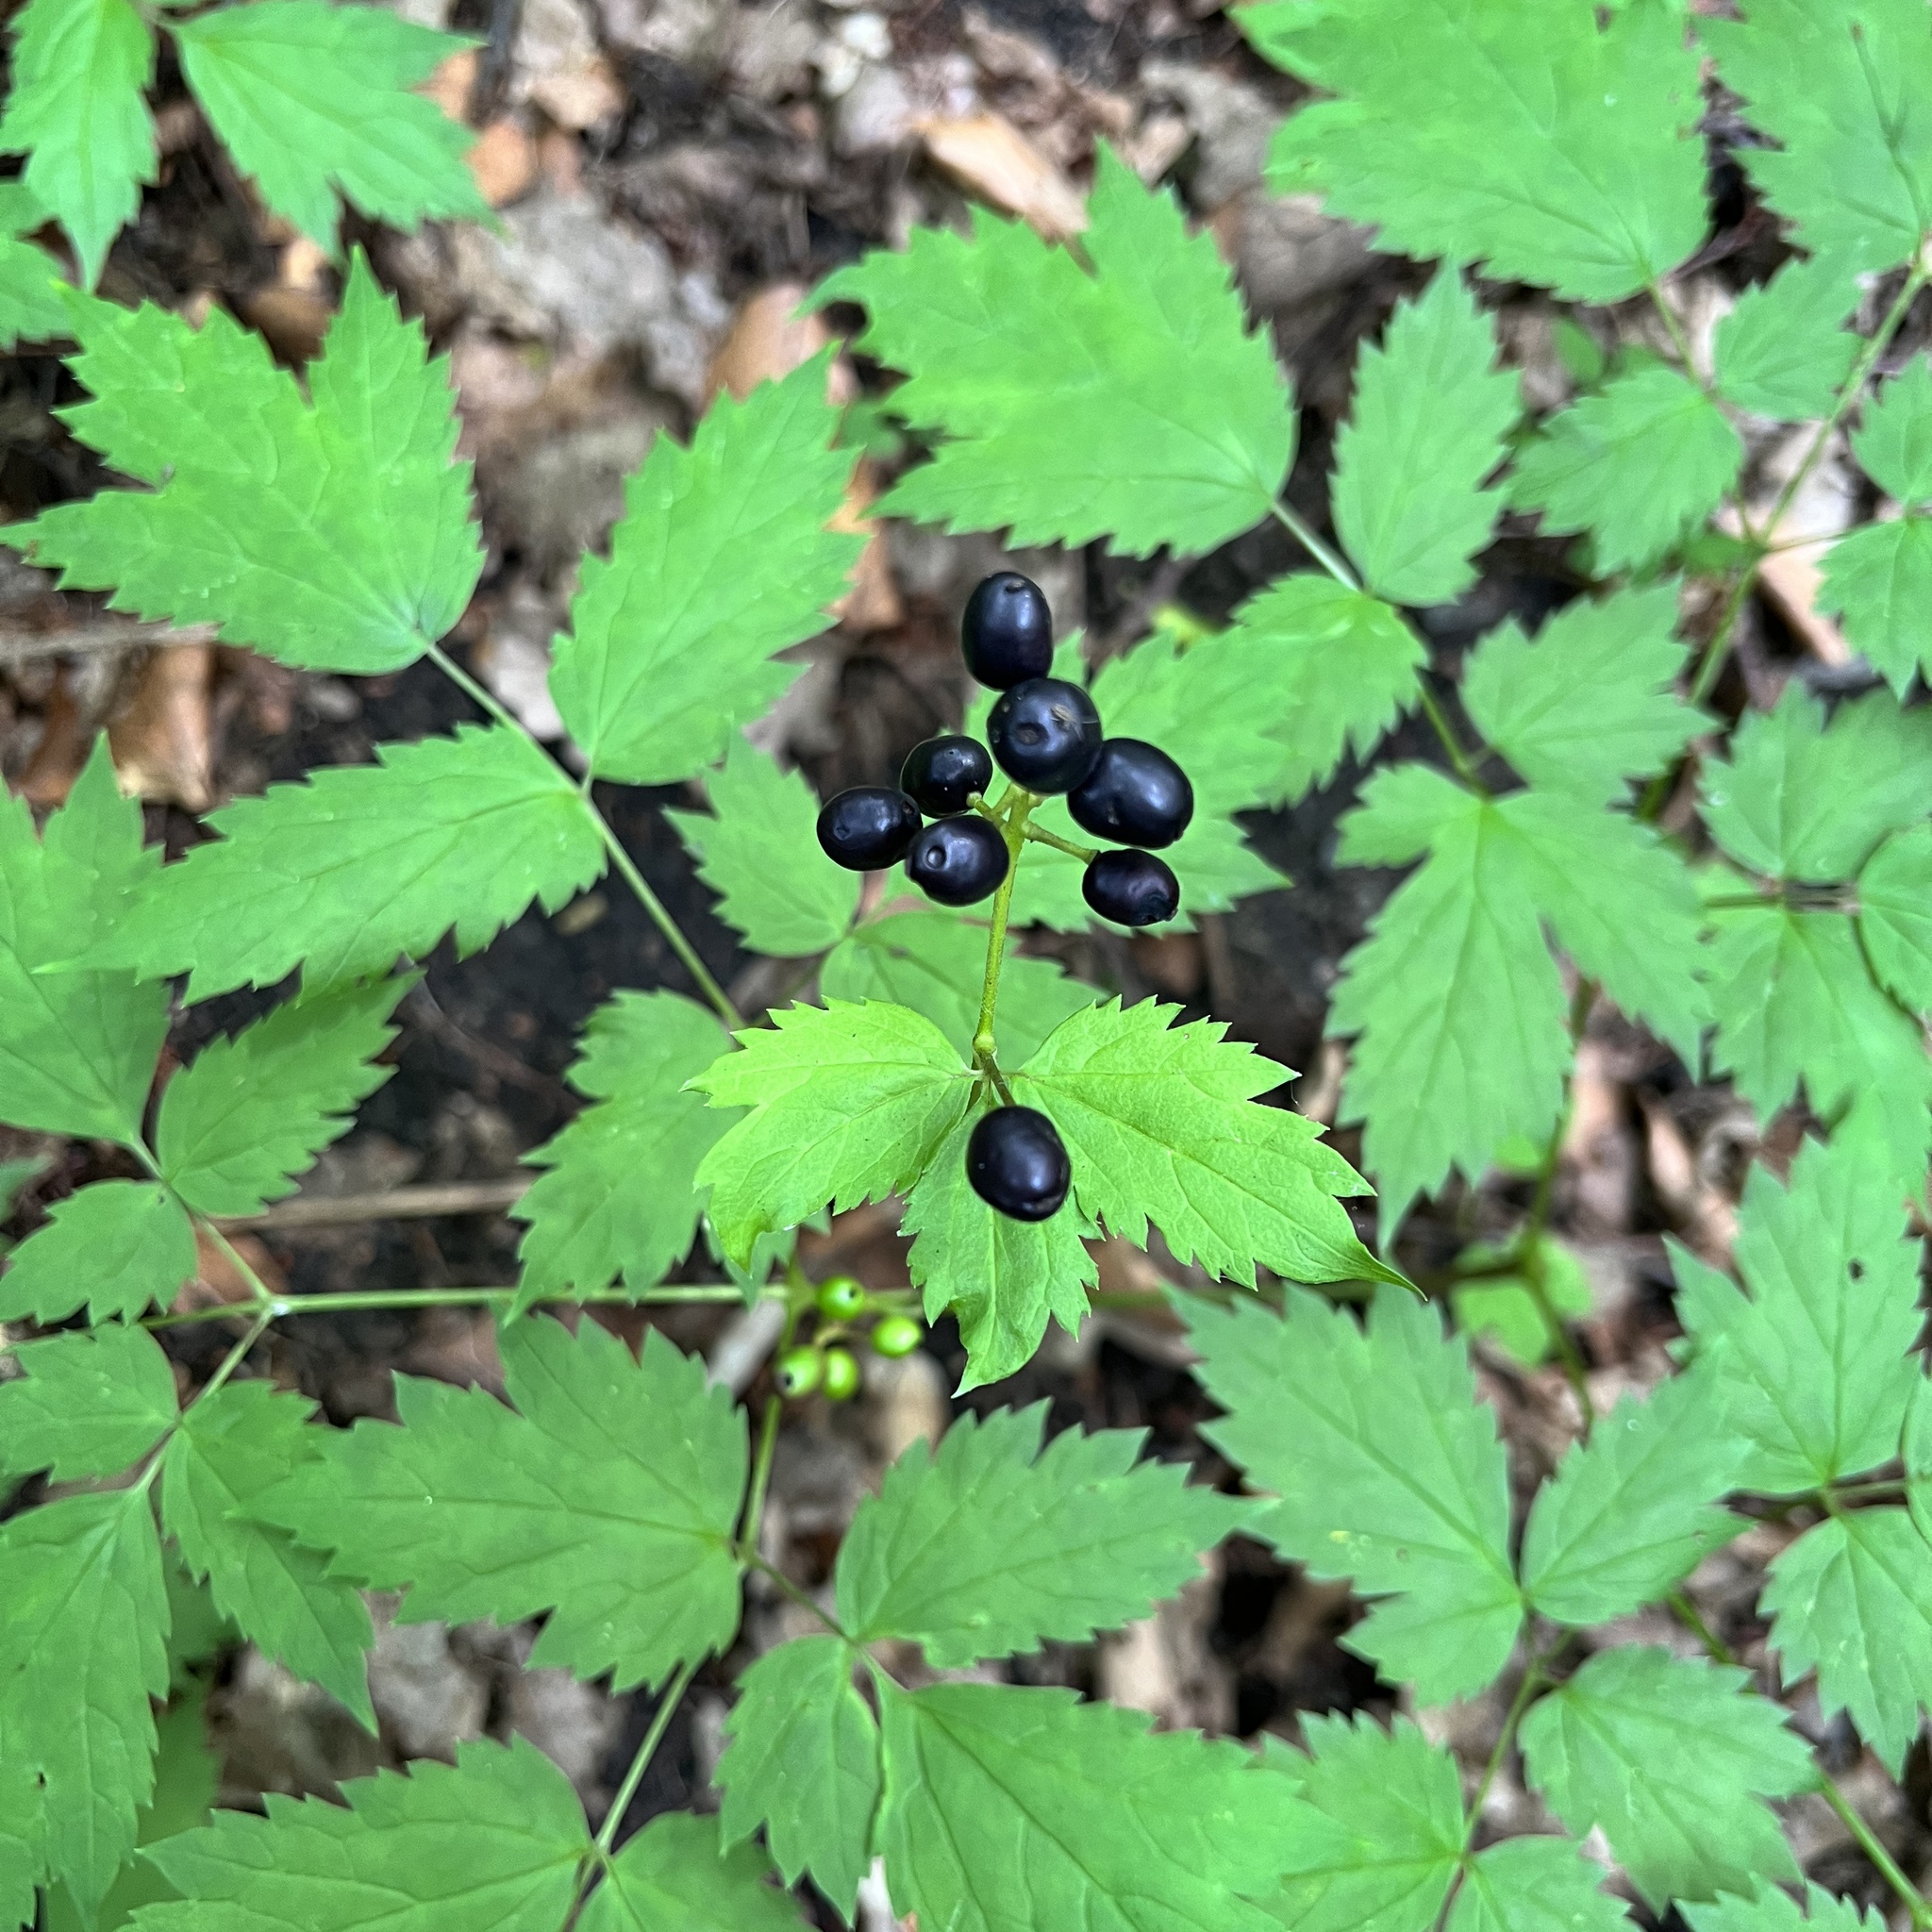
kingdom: Plantae
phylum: Tracheophyta
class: Magnoliopsida
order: Ranunculales
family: Ranunculaceae
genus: Actaea
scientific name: Actaea spicata
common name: Baneberry
